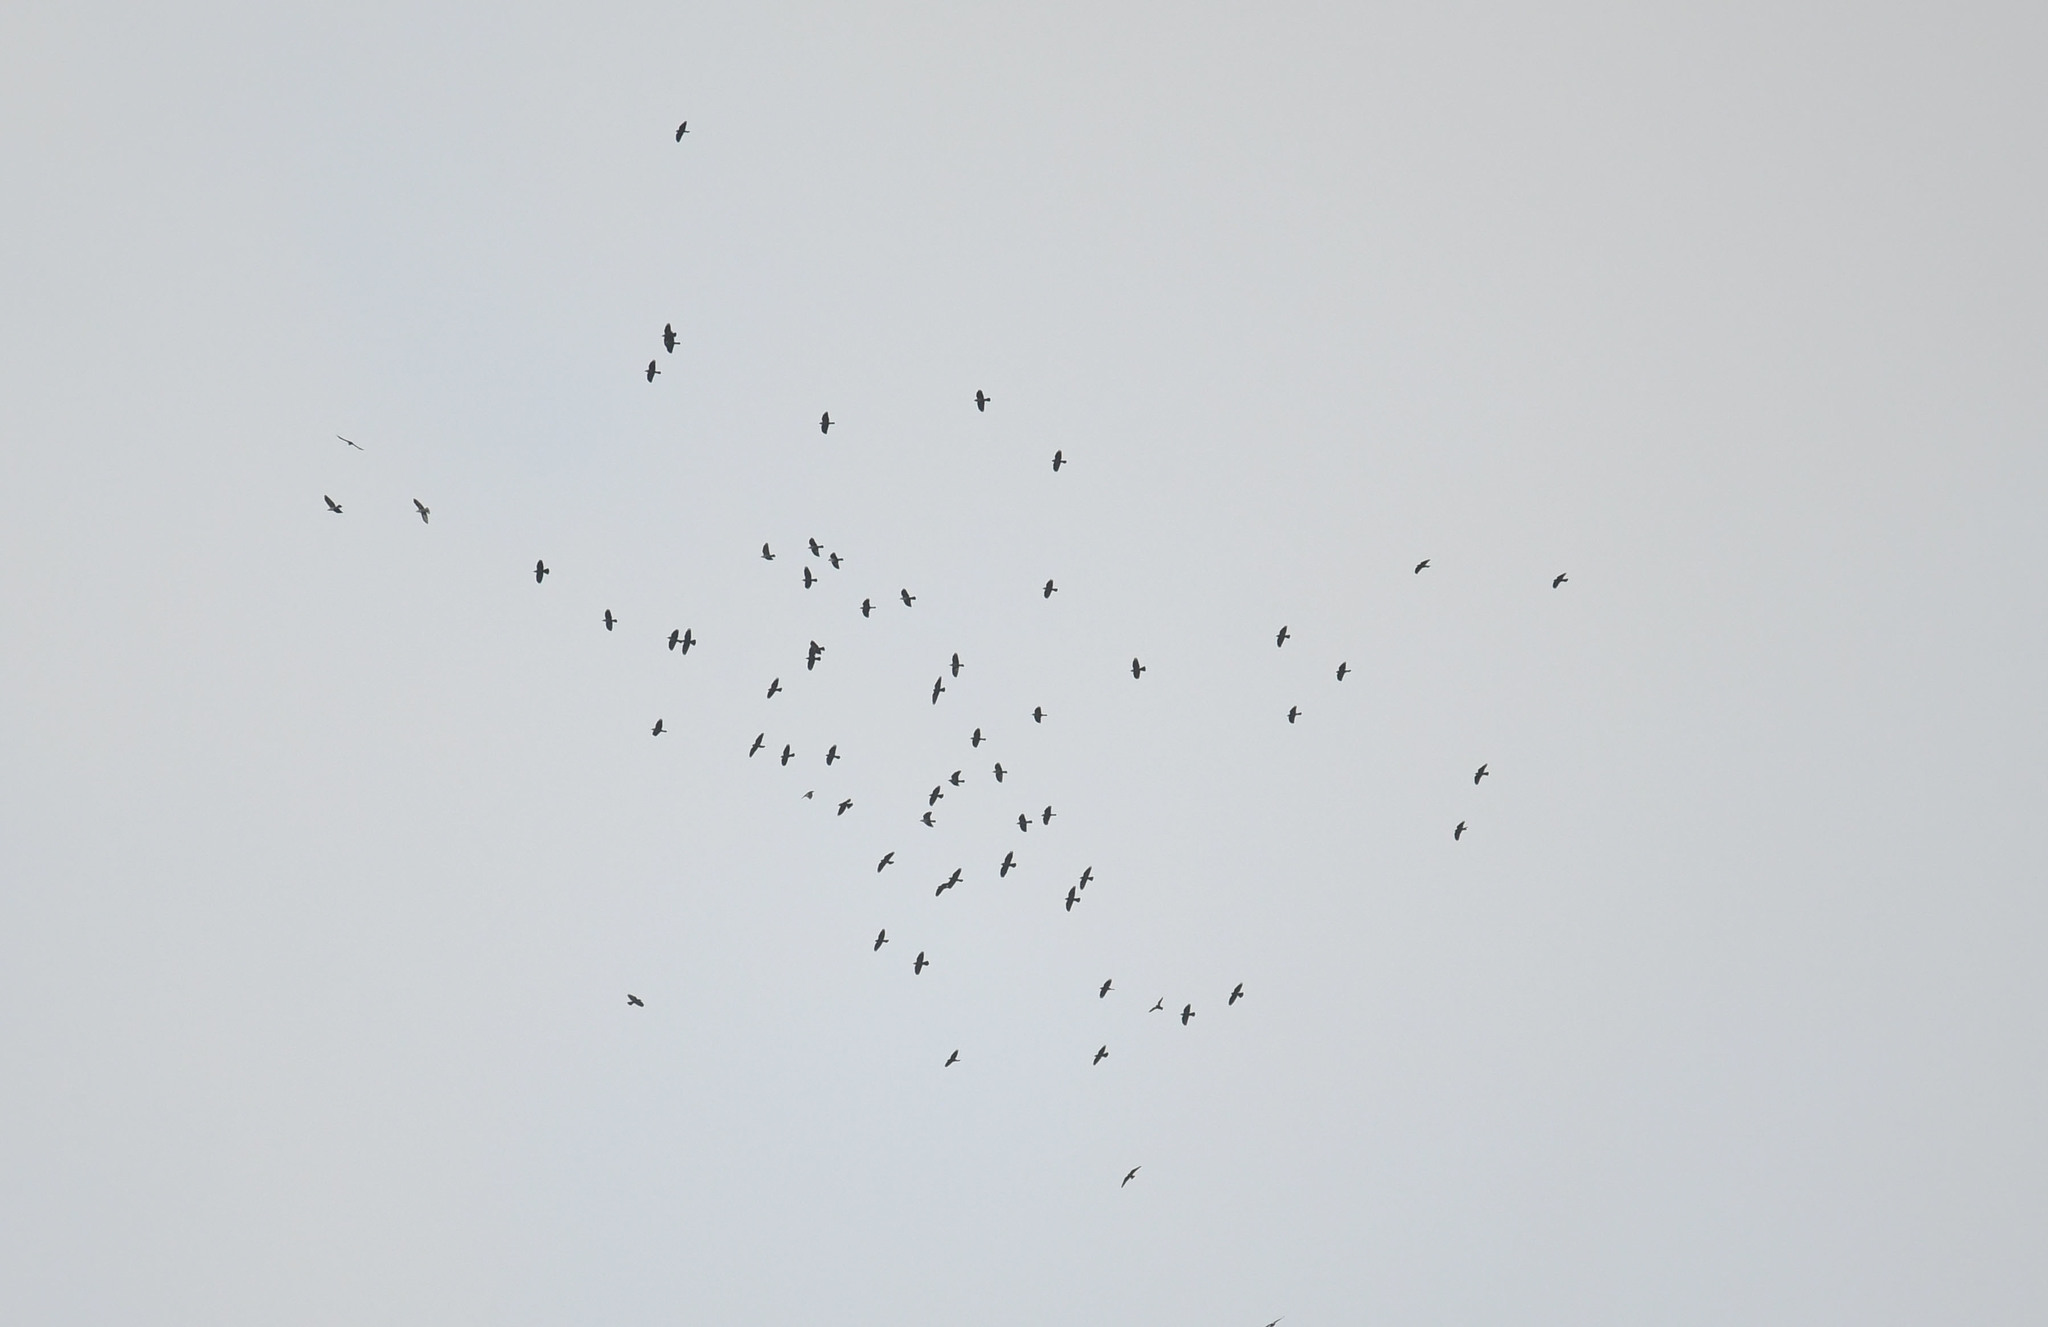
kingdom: Animalia
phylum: Chordata
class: Aves
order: Passeriformes
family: Corvidae
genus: Coloeus
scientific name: Coloeus monedula
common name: Western jackdaw
